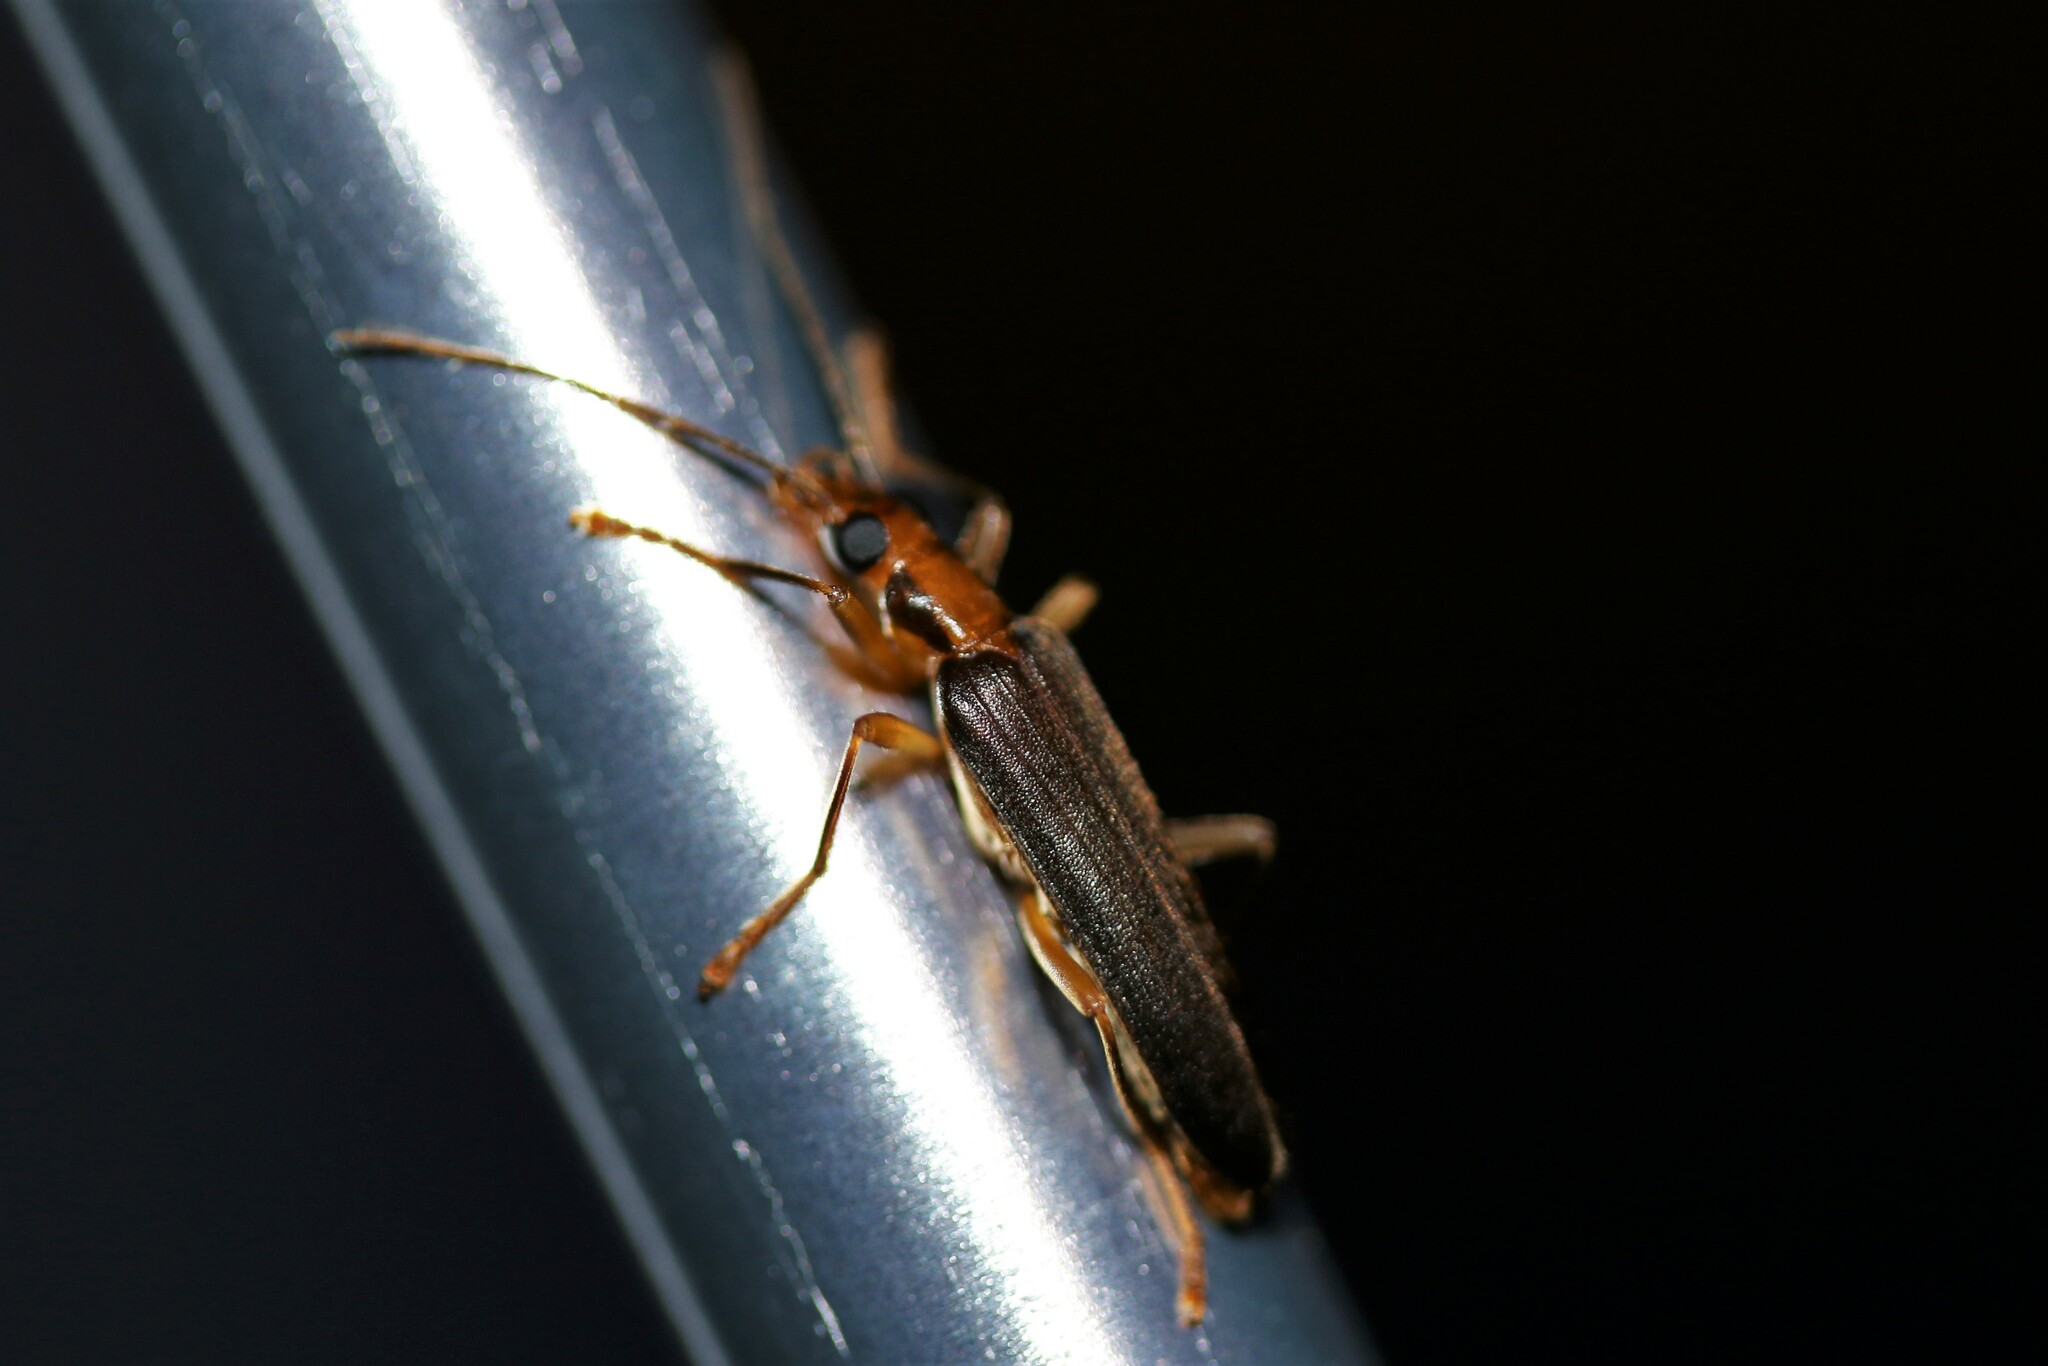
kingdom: Animalia
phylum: Arthropoda
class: Insecta
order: Coleoptera
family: Oedemeridae
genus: Nacerdes
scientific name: Nacerdes carniolica
